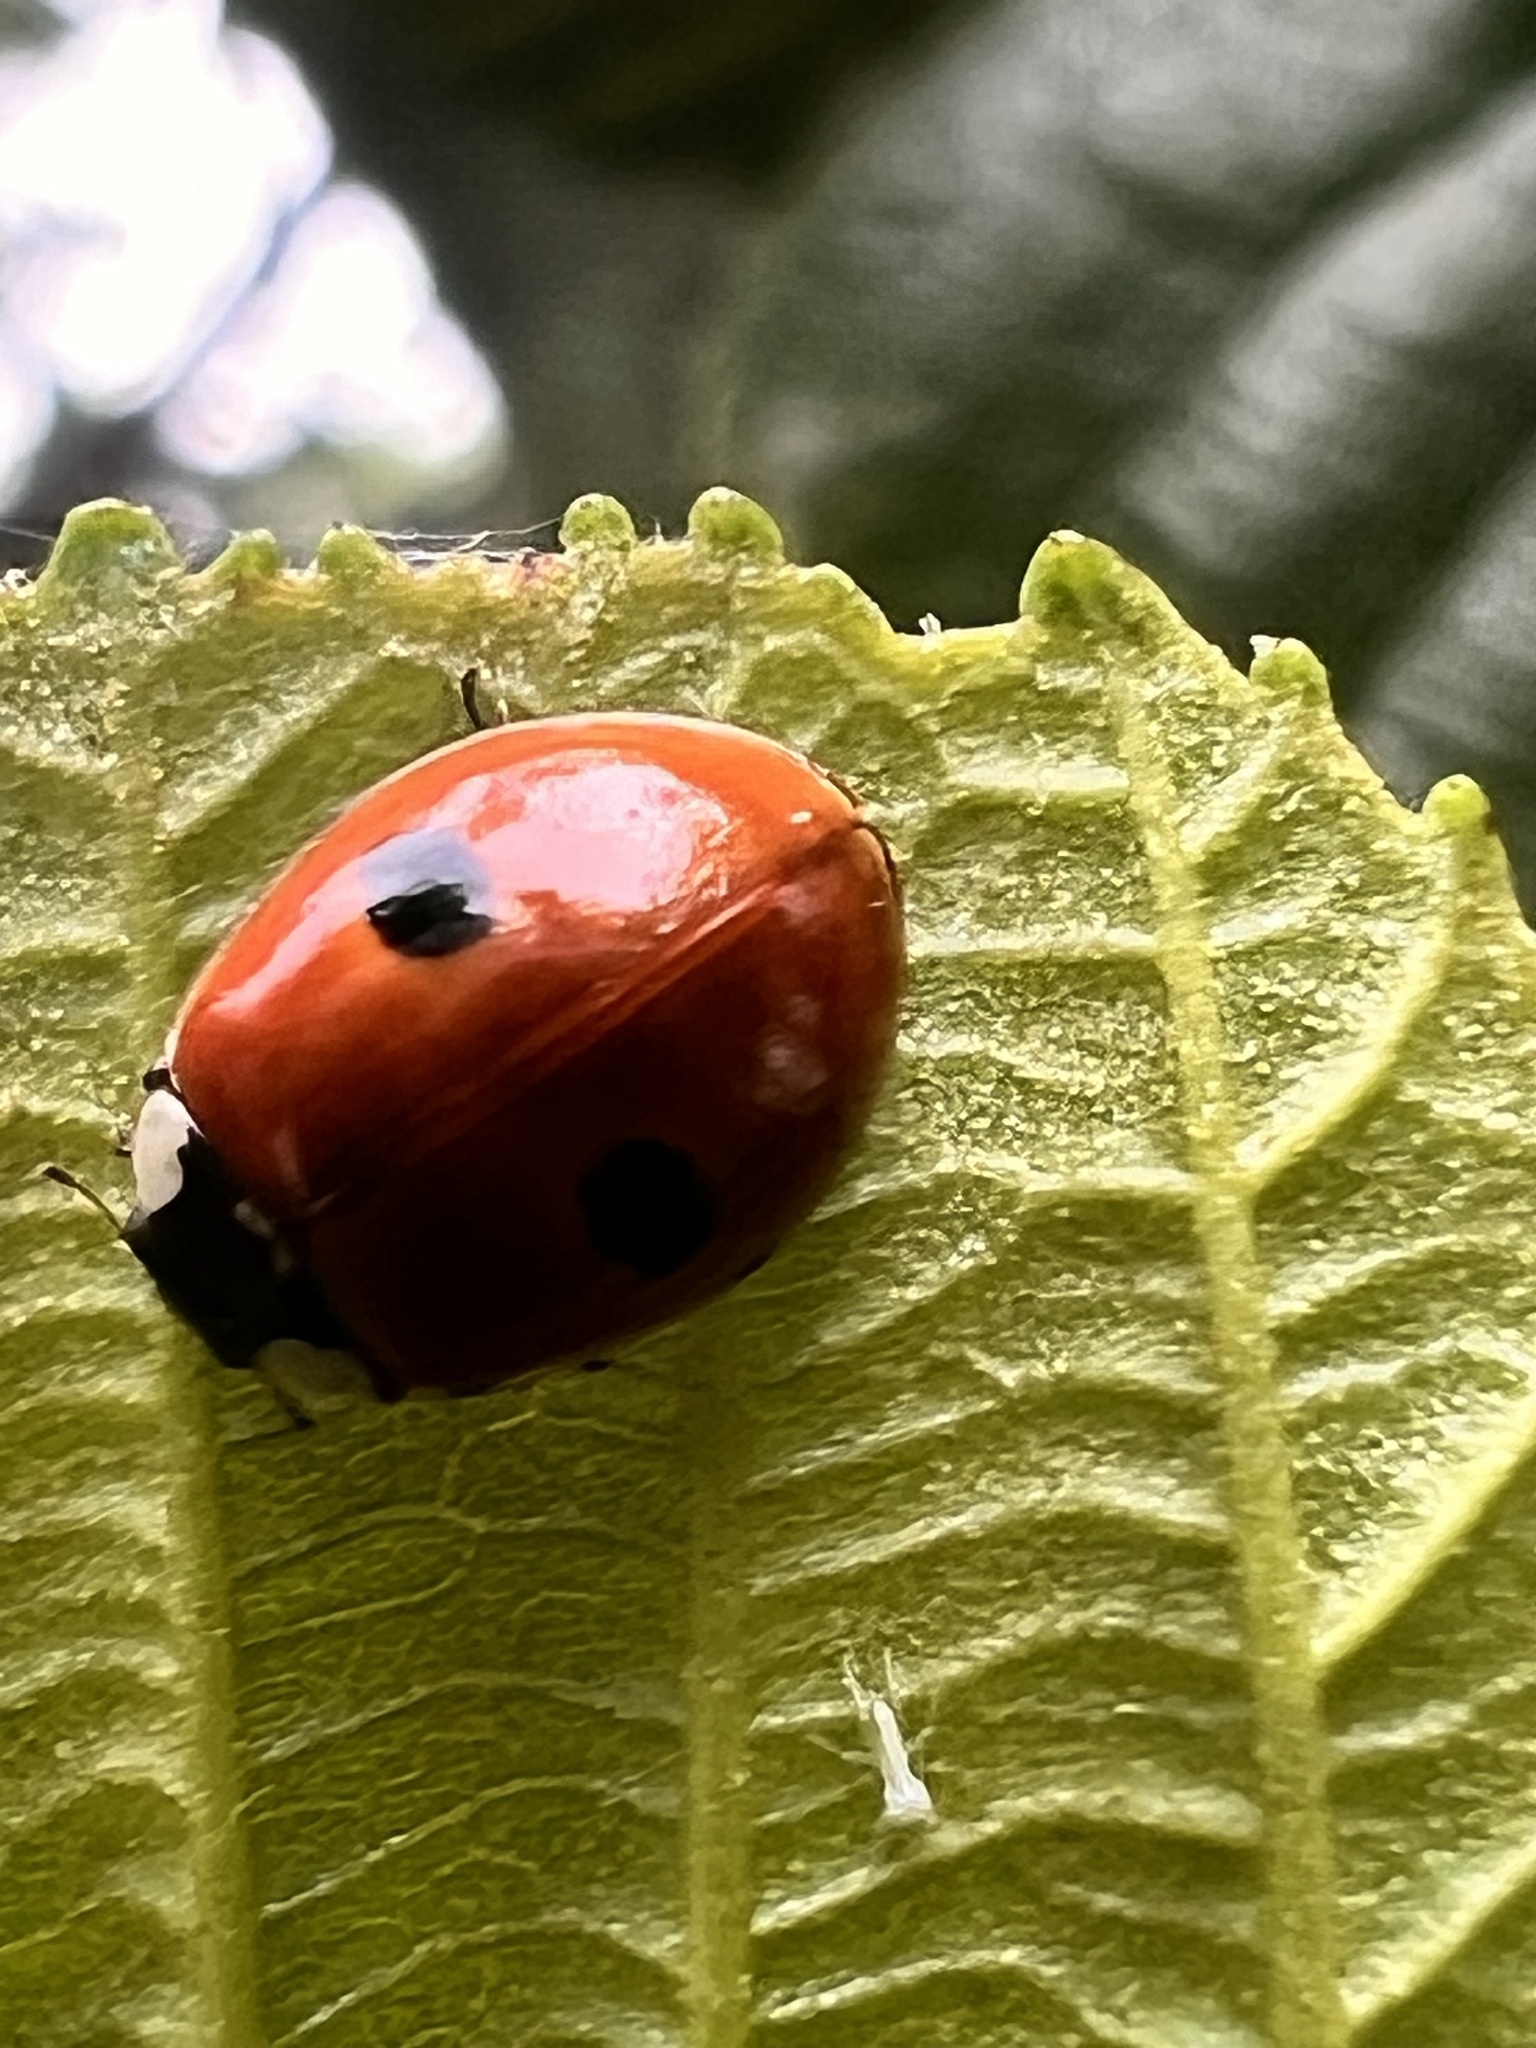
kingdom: Animalia
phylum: Arthropoda
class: Insecta
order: Coleoptera
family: Coccinellidae
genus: Adalia
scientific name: Adalia bipunctata
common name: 2-spot ladybird
